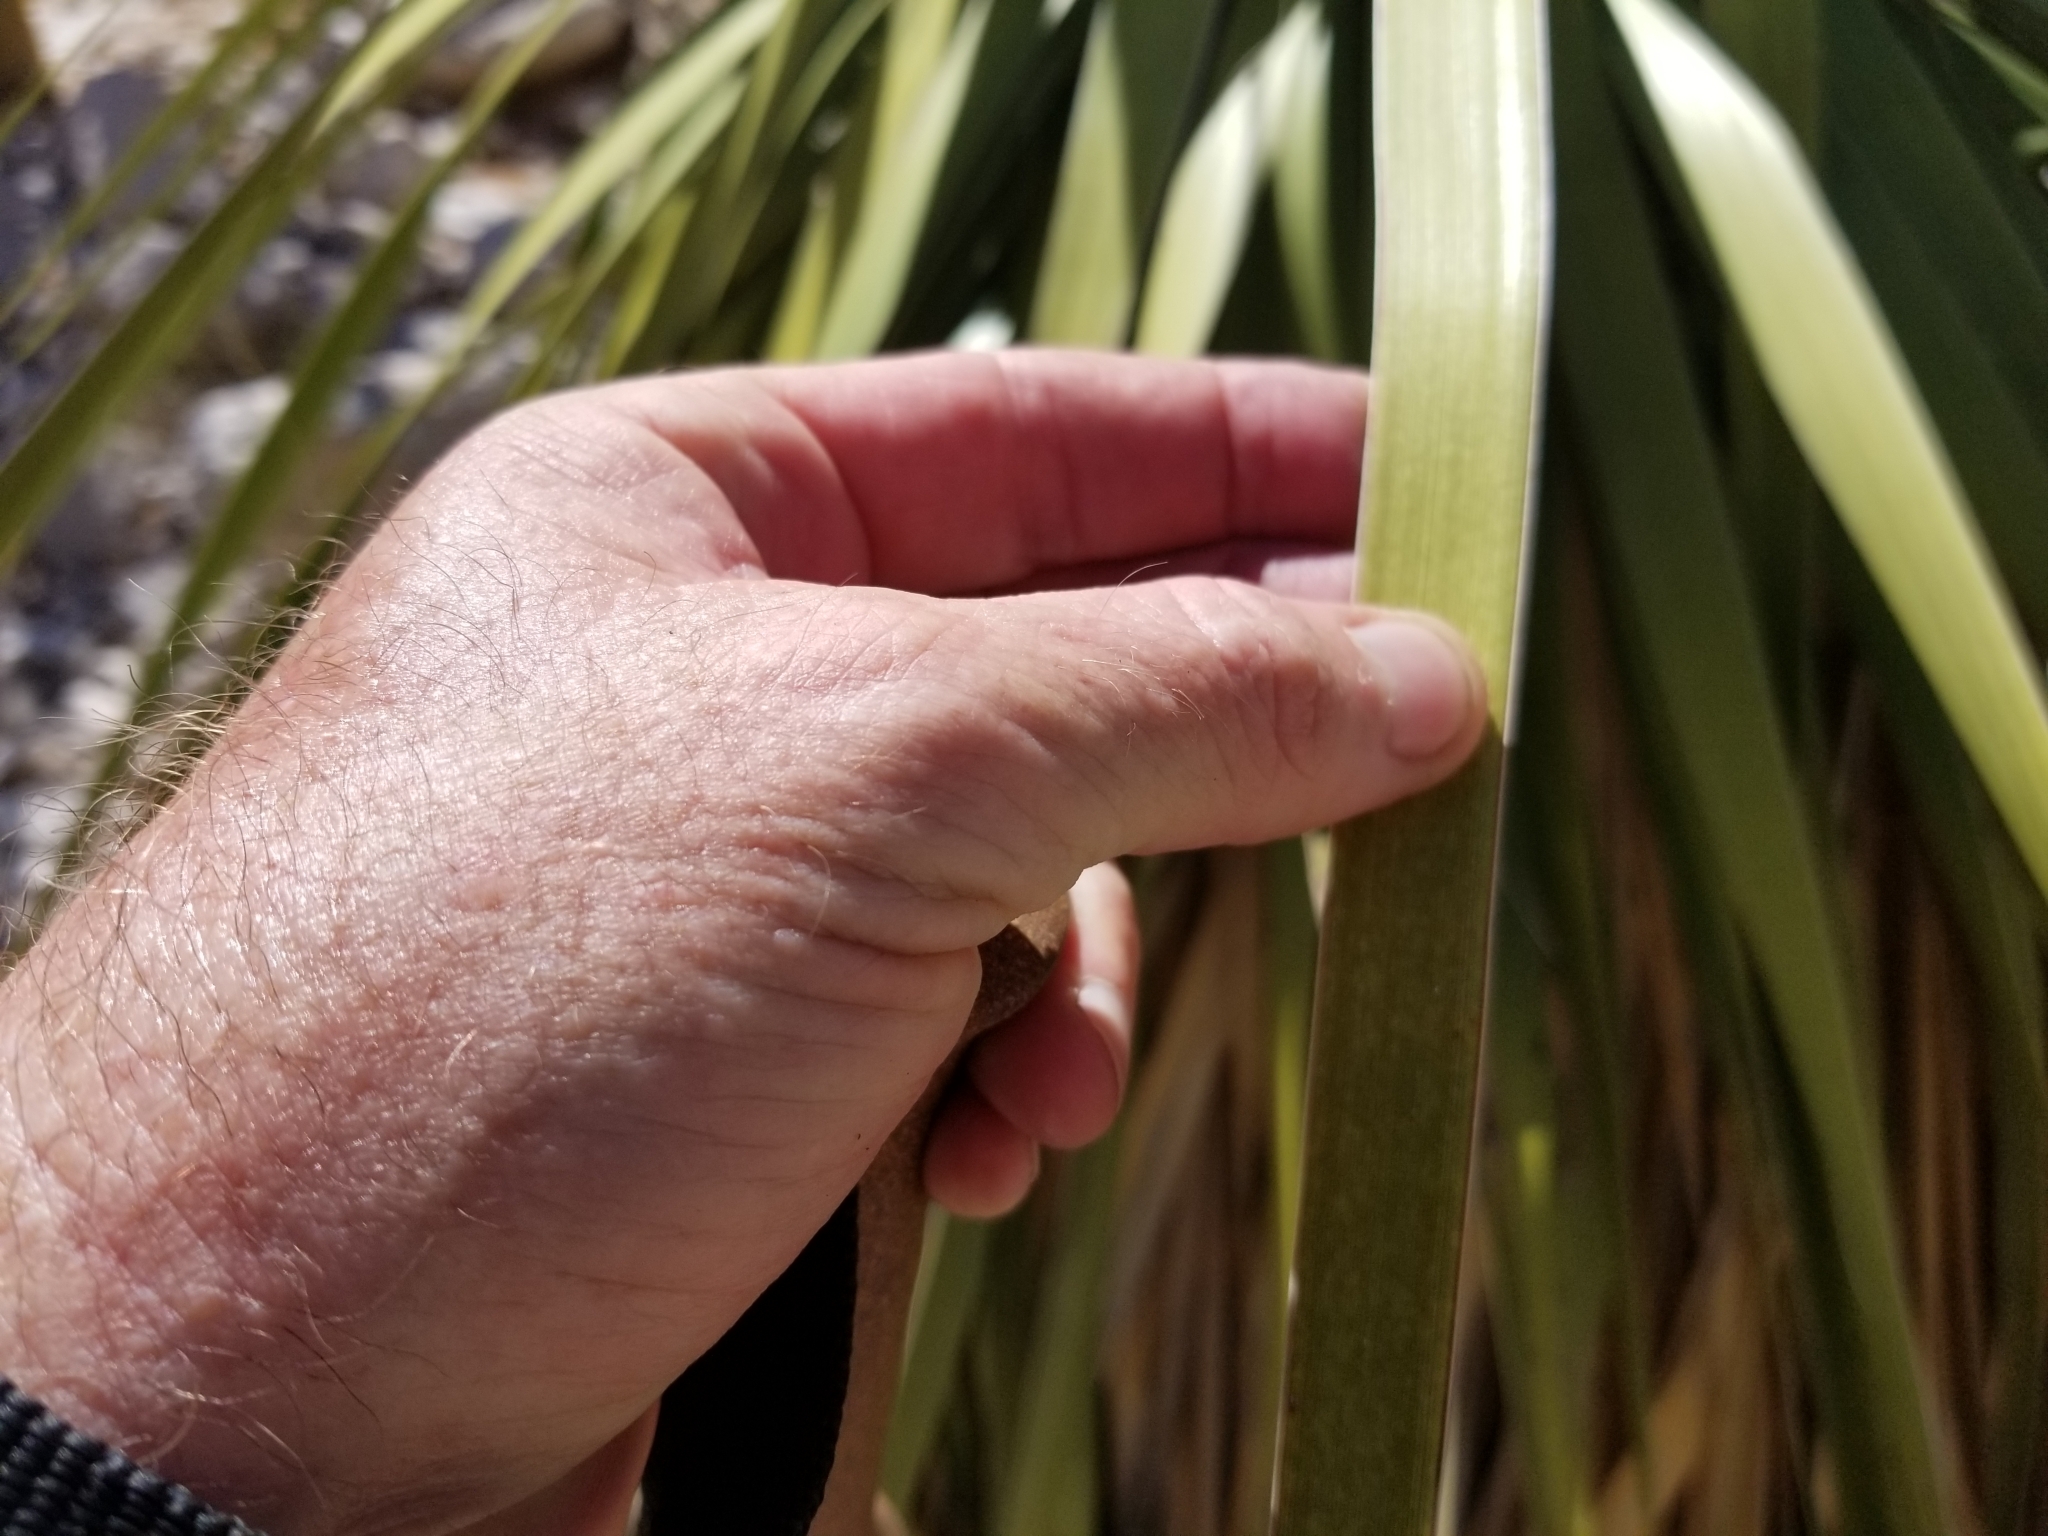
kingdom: Plantae
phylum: Tracheophyta
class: Liliopsida
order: Asparagales
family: Asparagaceae
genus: Nolina
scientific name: Nolina bigelovii
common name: Bigelow bear-grass
